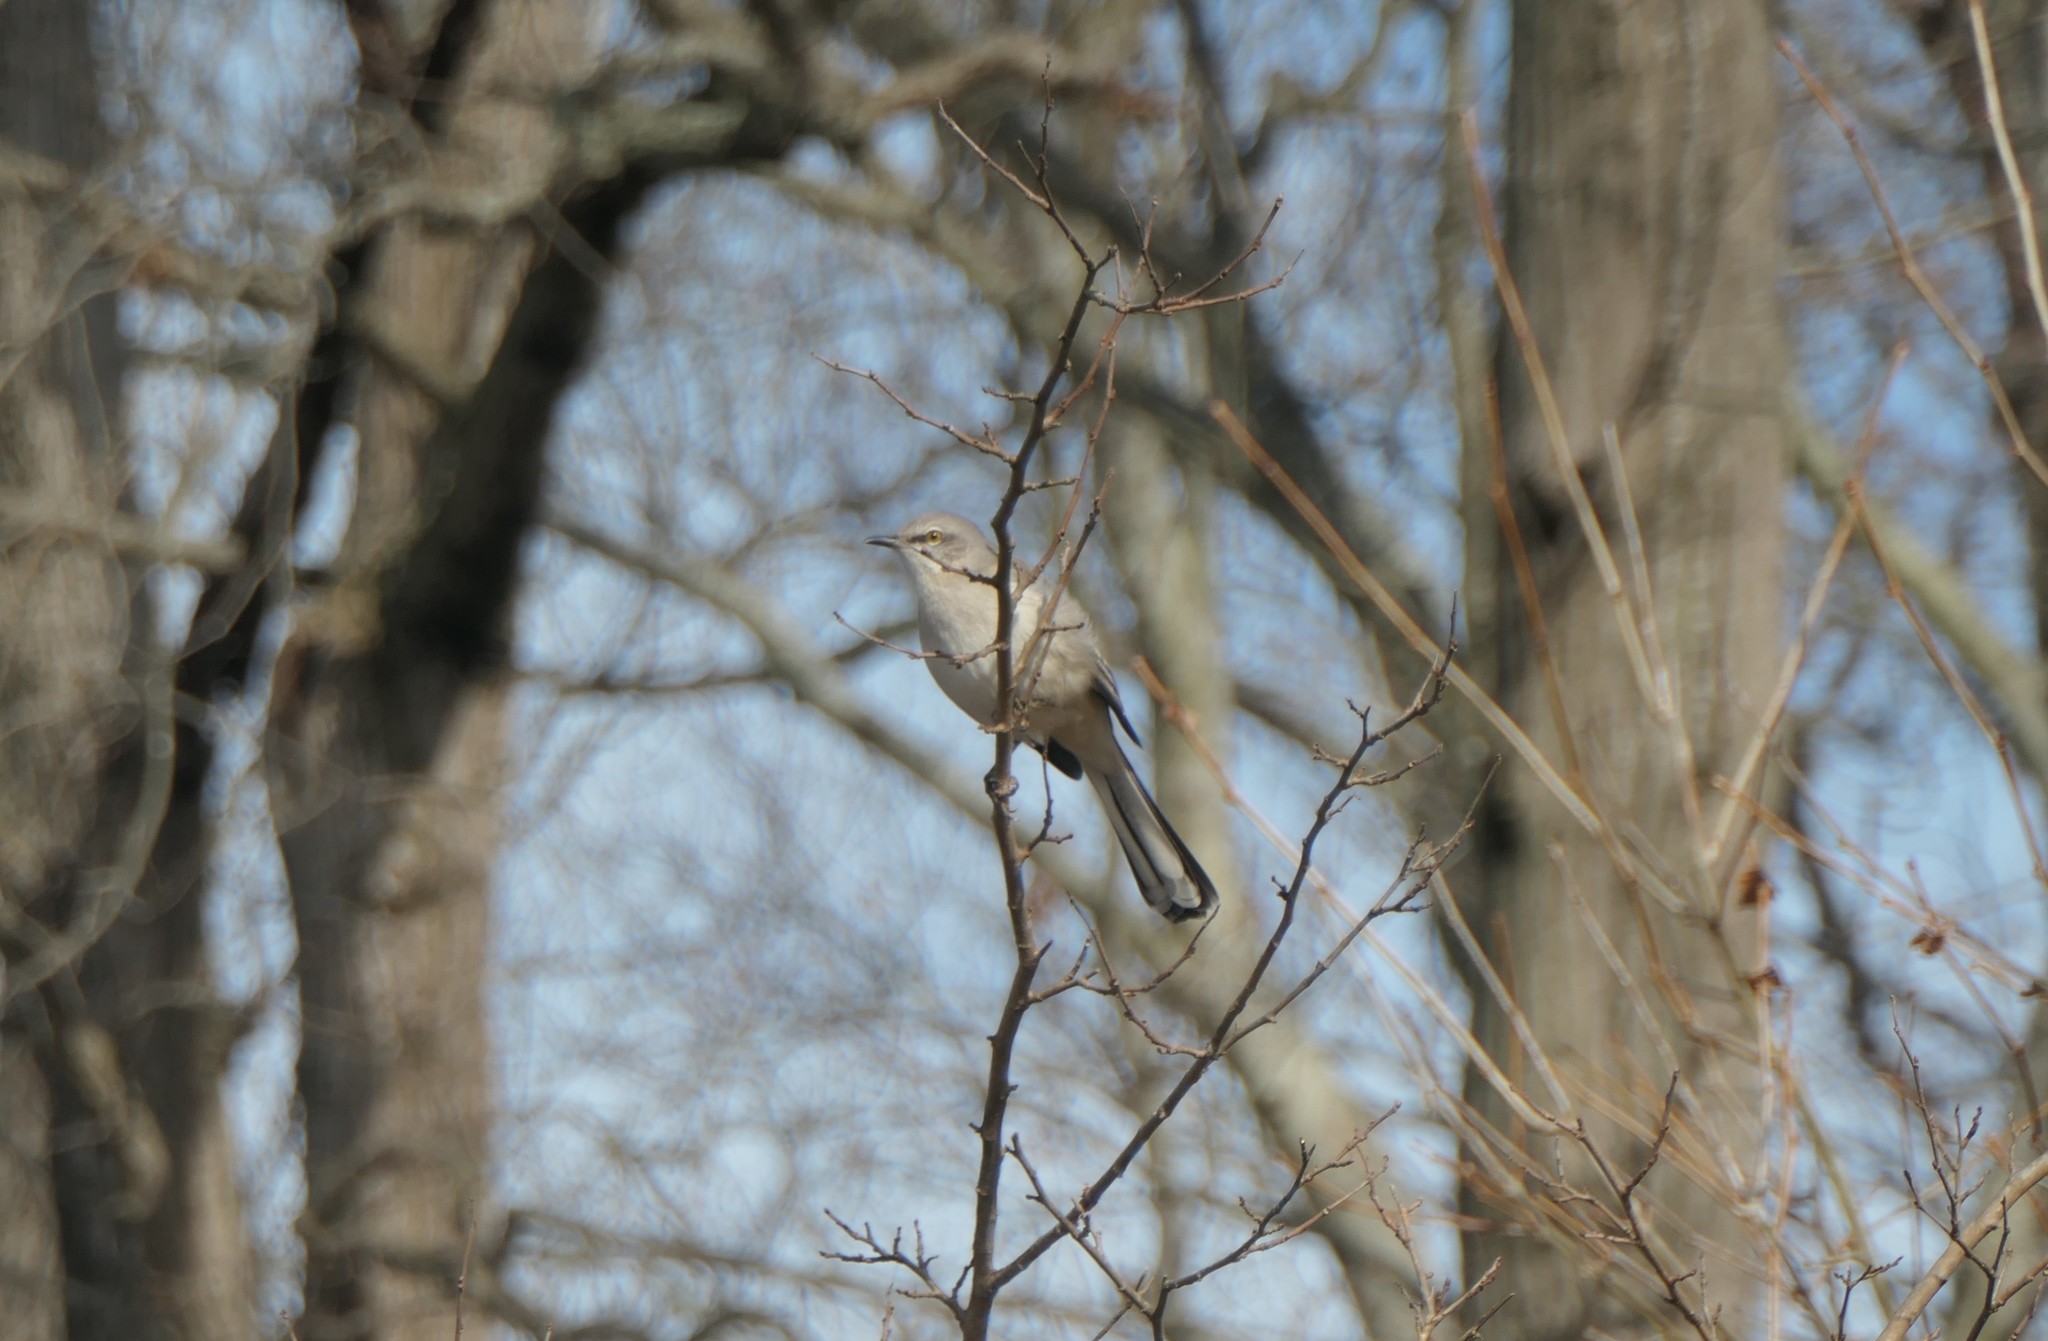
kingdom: Animalia
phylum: Chordata
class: Aves
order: Passeriformes
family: Mimidae
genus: Mimus
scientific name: Mimus polyglottos
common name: Northern mockingbird
